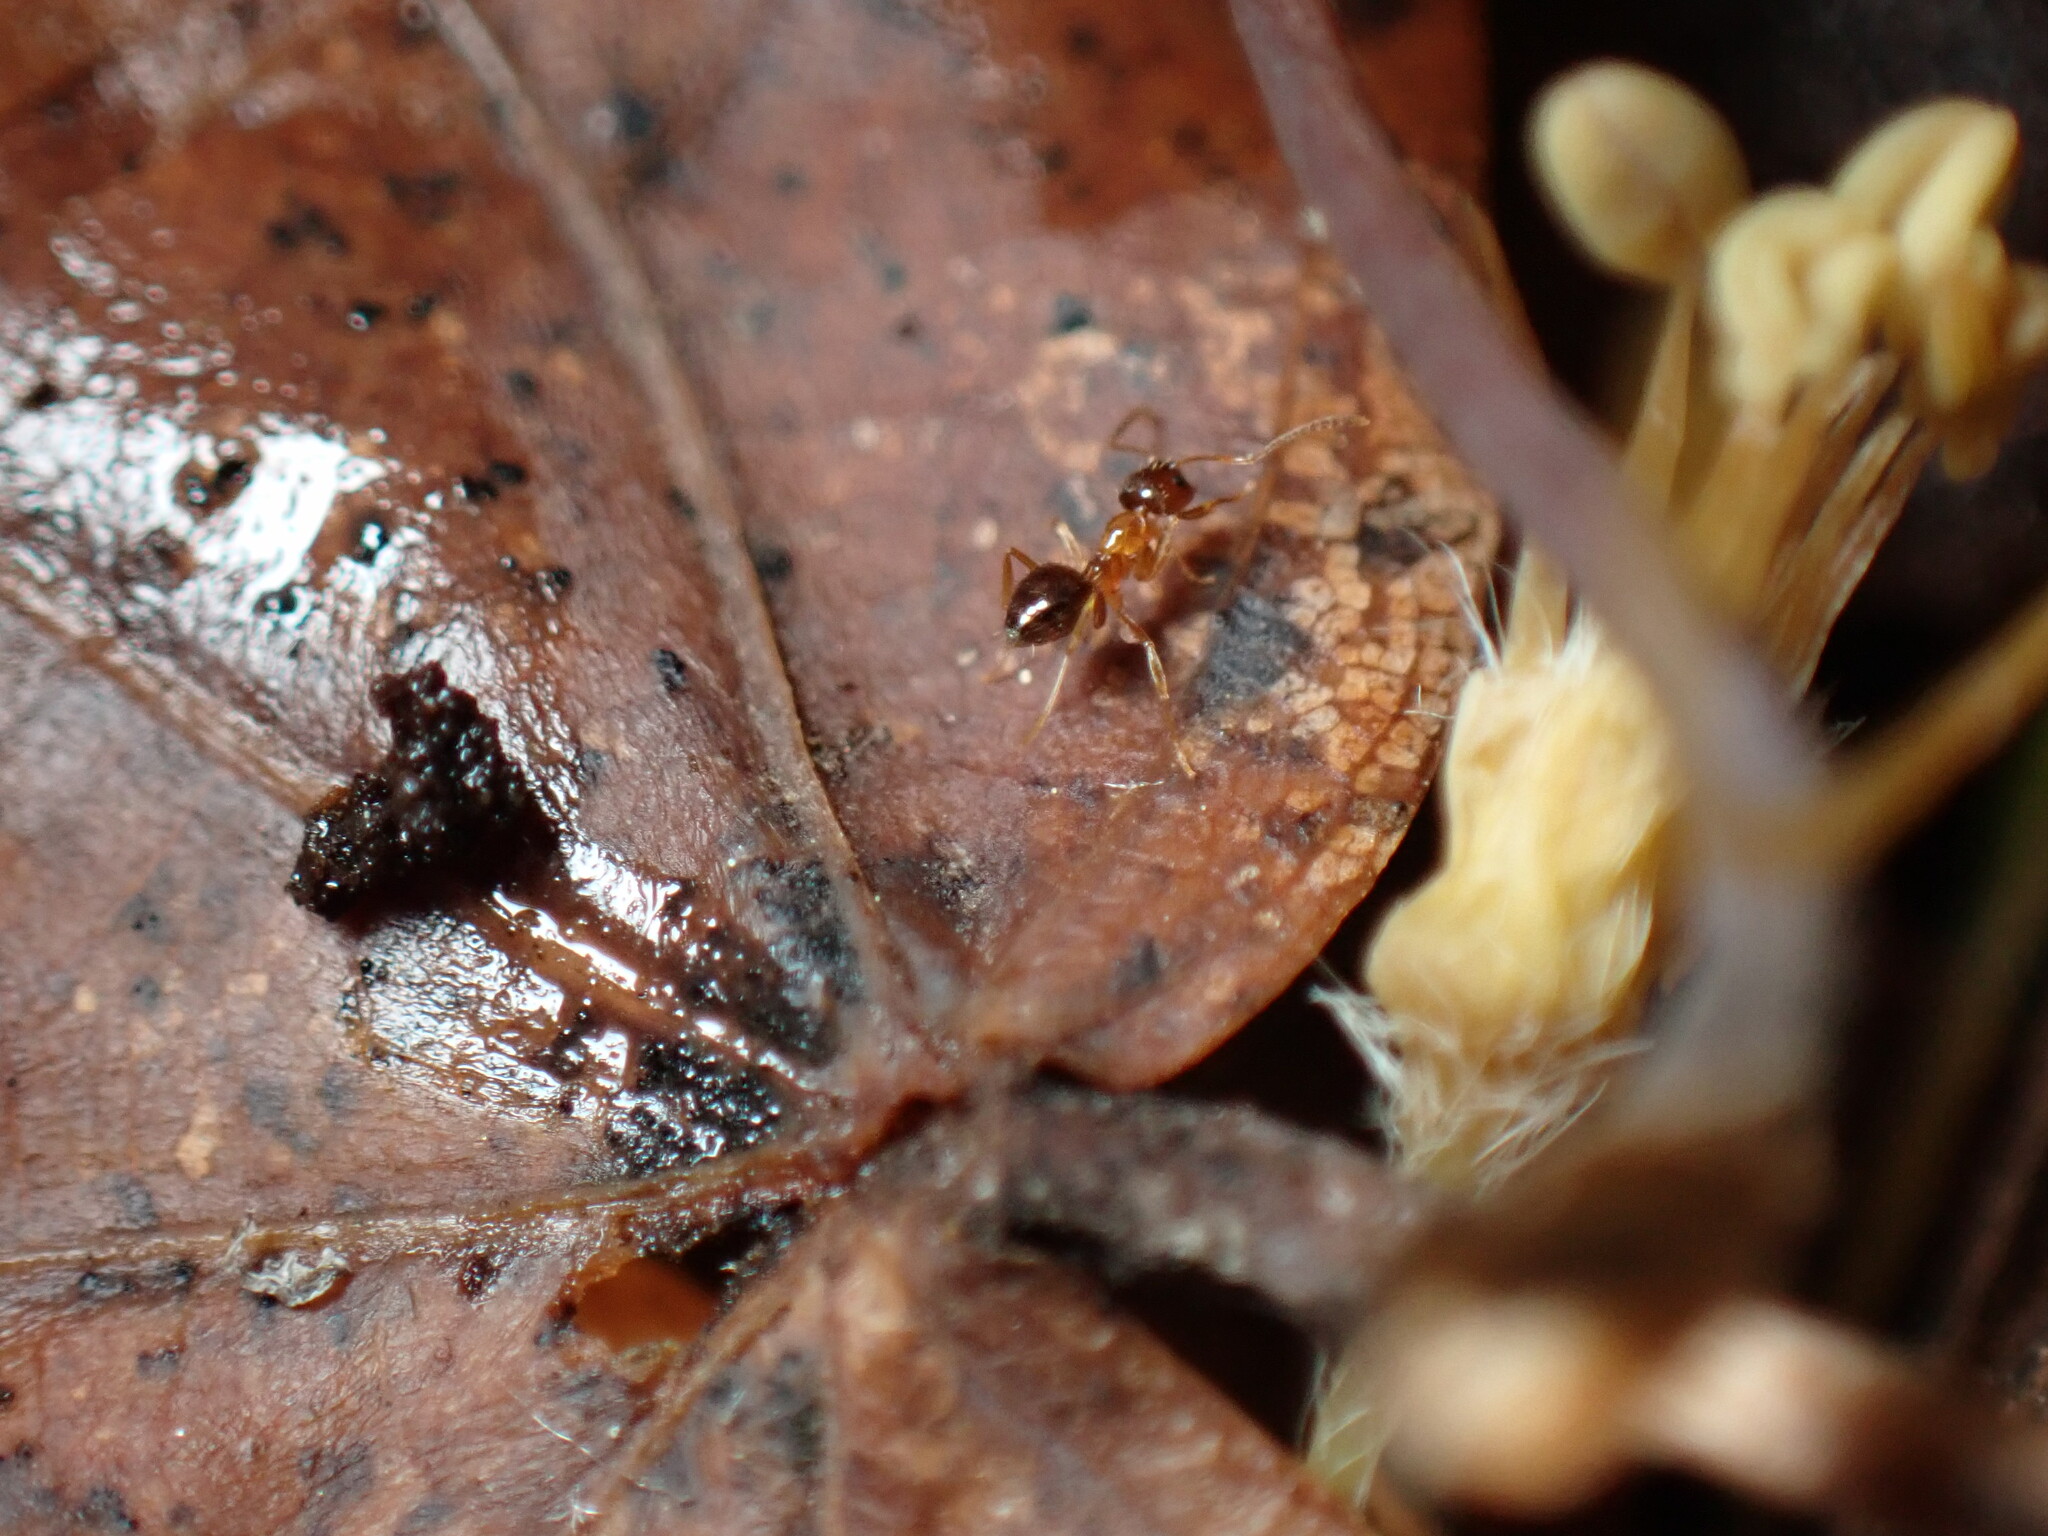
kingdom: Animalia
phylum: Arthropoda
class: Insecta
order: Hymenoptera
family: Formicidae
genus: Paratrechina
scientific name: Paratrechina flavipes
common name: Eastern asian formicine ant
